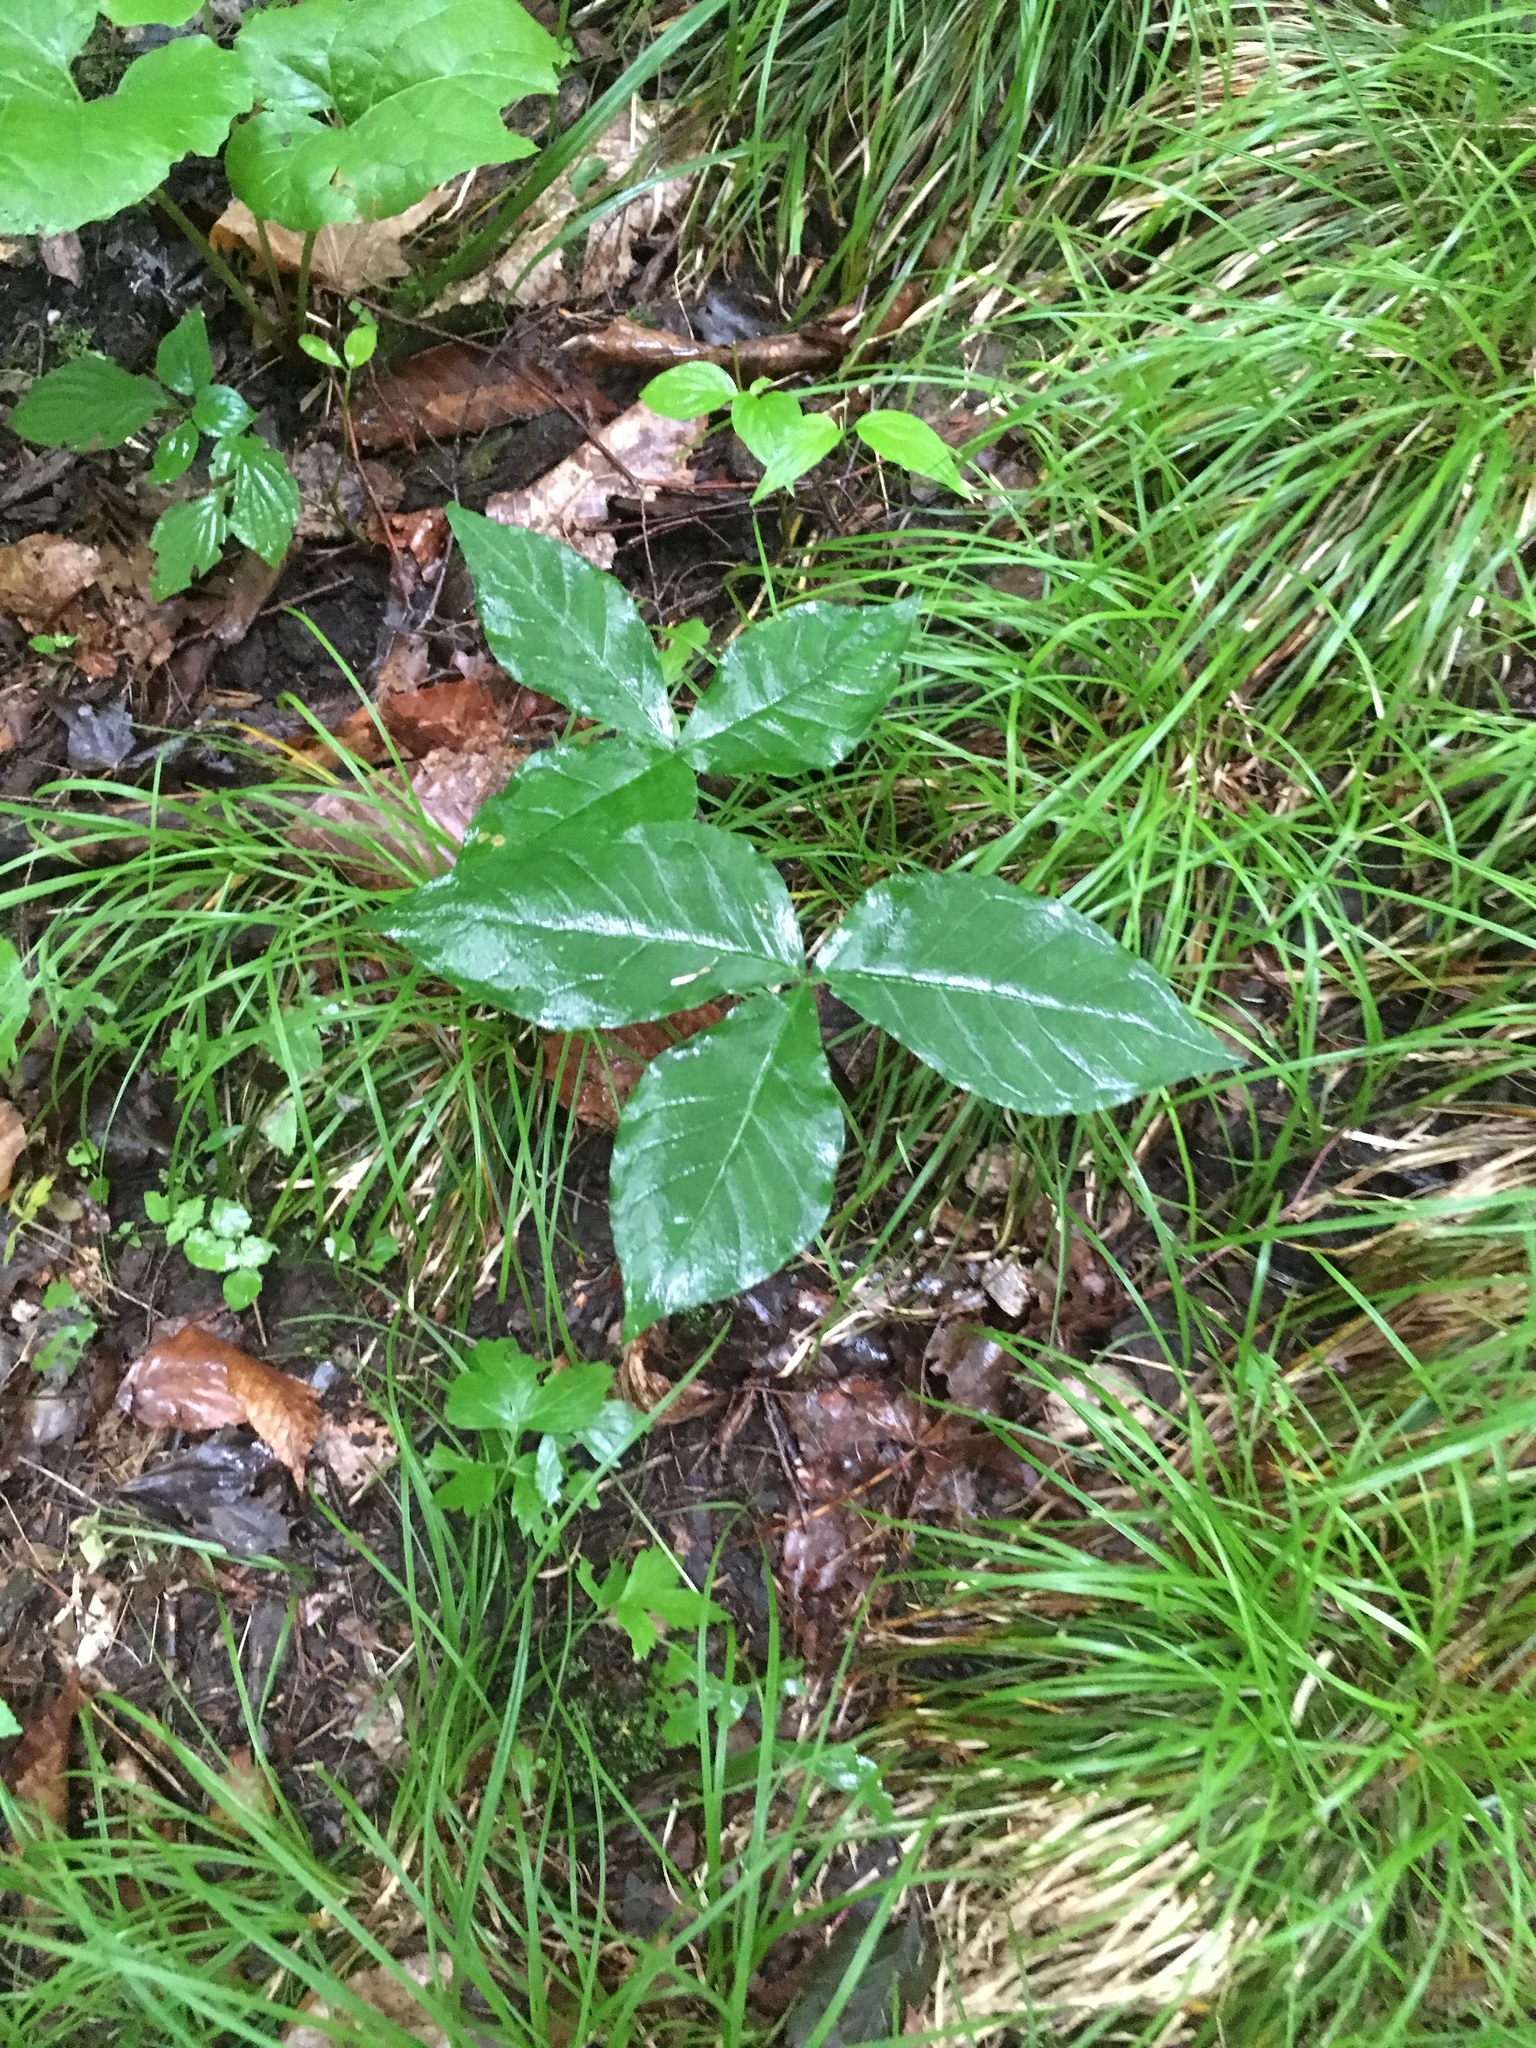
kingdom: Plantae
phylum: Tracheophyta
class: Liliopsida
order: Alismatales
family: Araceae
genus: Arisaema
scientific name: Arisaema triphyllum
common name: Jack-in-the-pulpit
